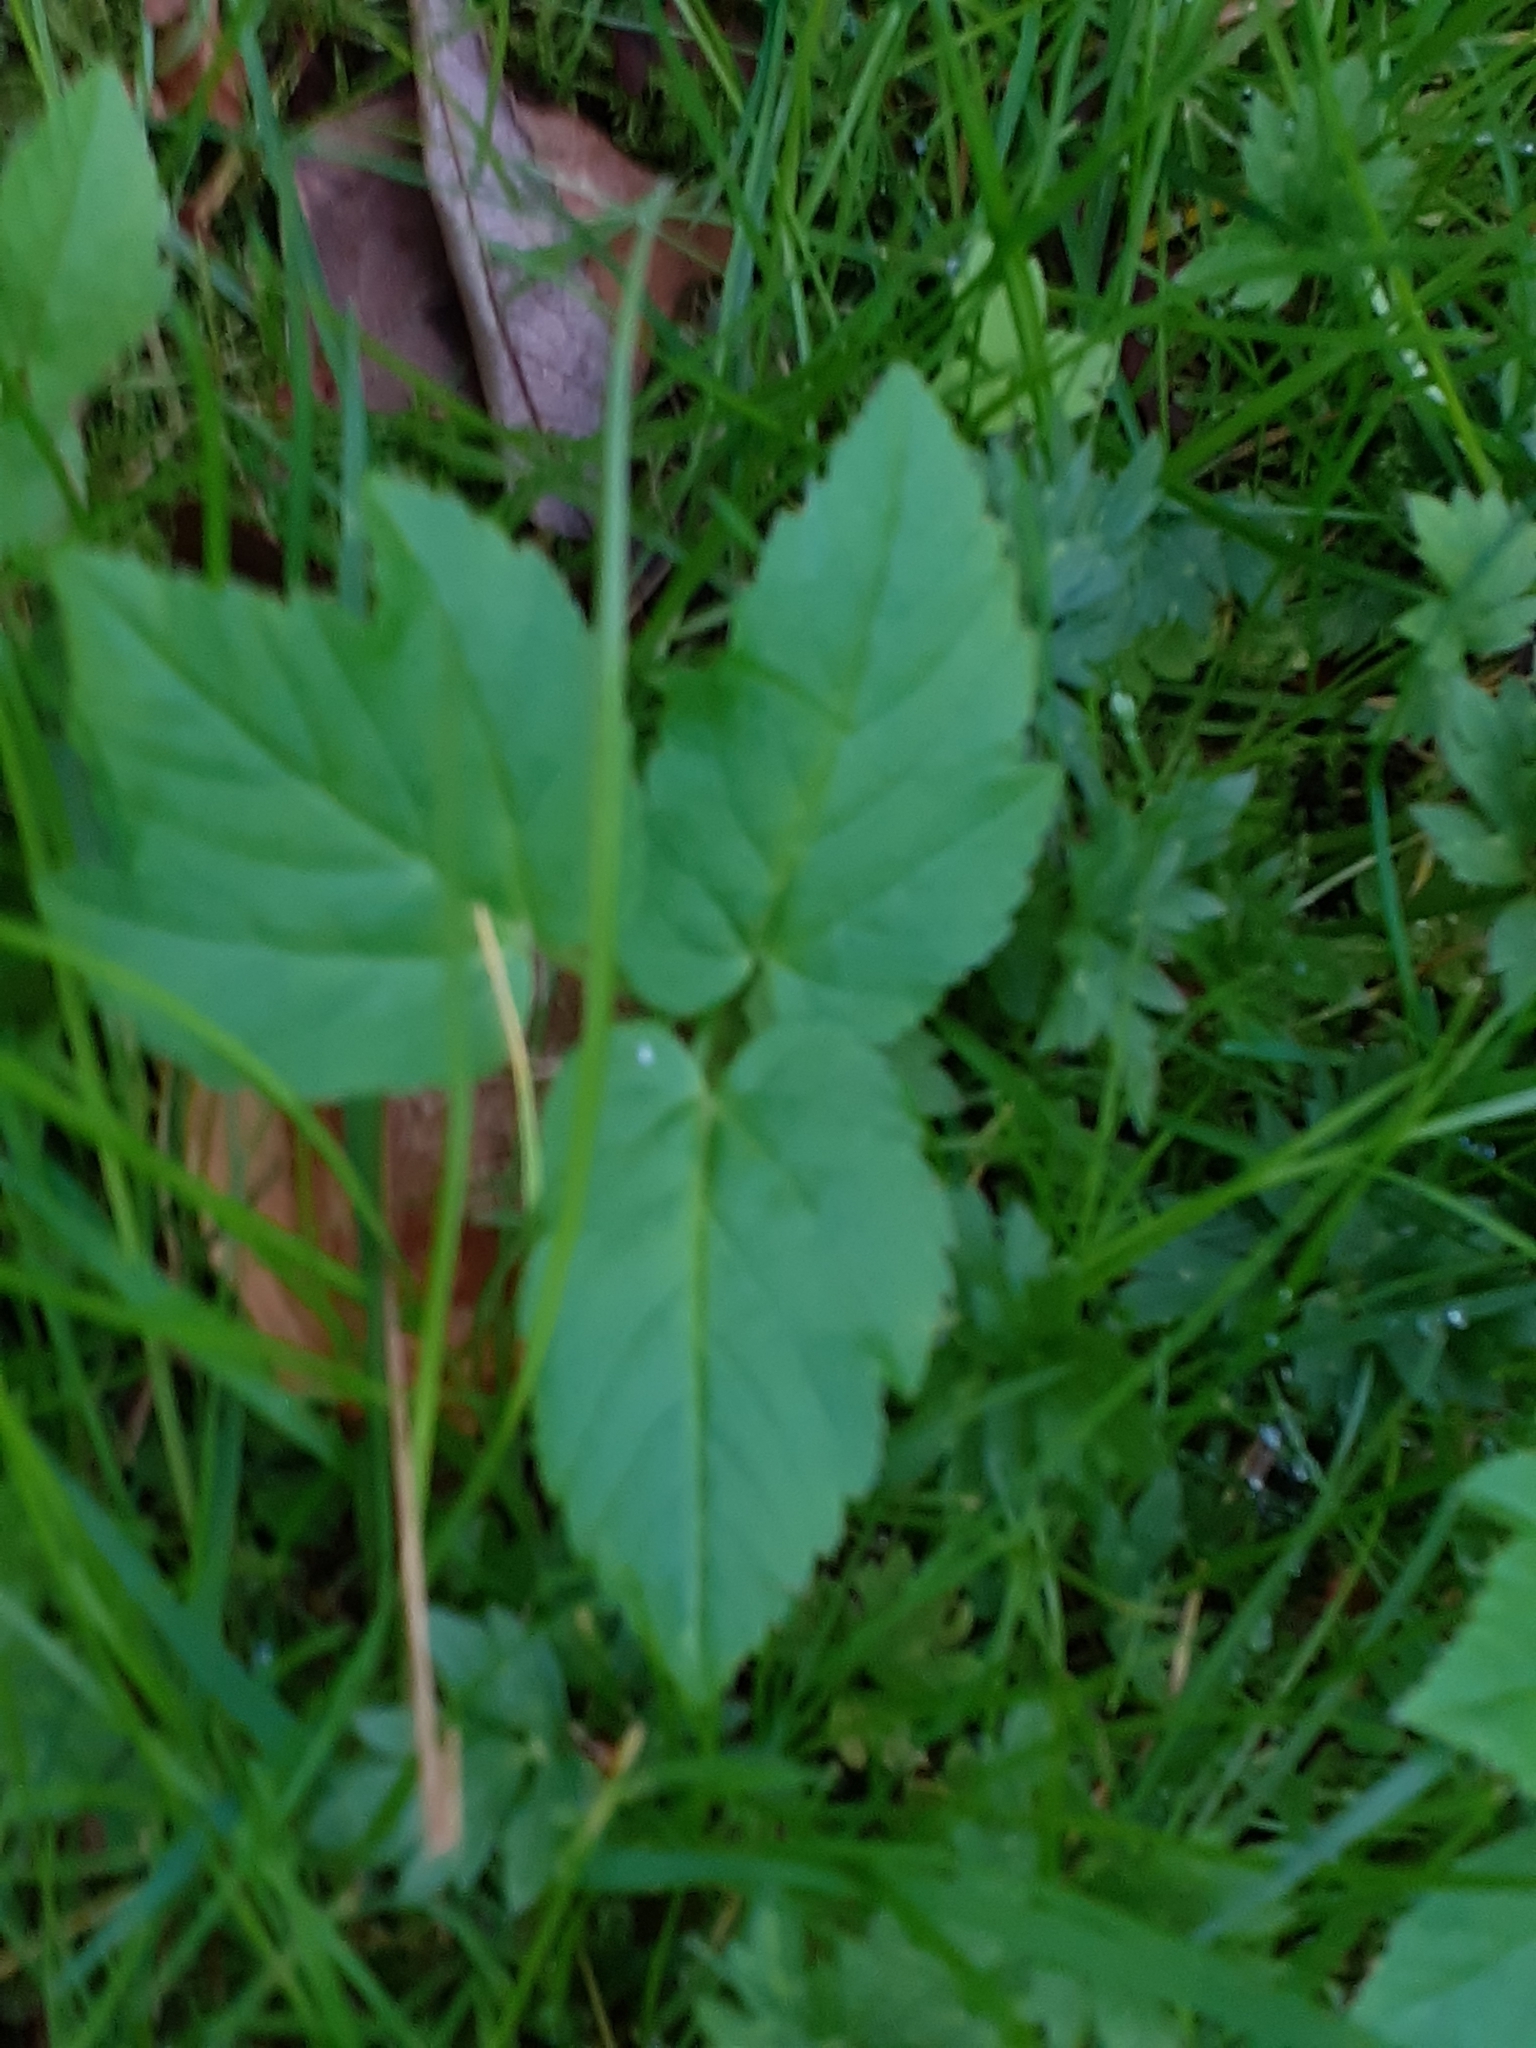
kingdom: Plantae
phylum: Tracheophyta
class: Magnoliopsida
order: Apiales
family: Apiaceae
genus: Aegopodium
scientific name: Aegopodium podagraria
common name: Ground-elder
